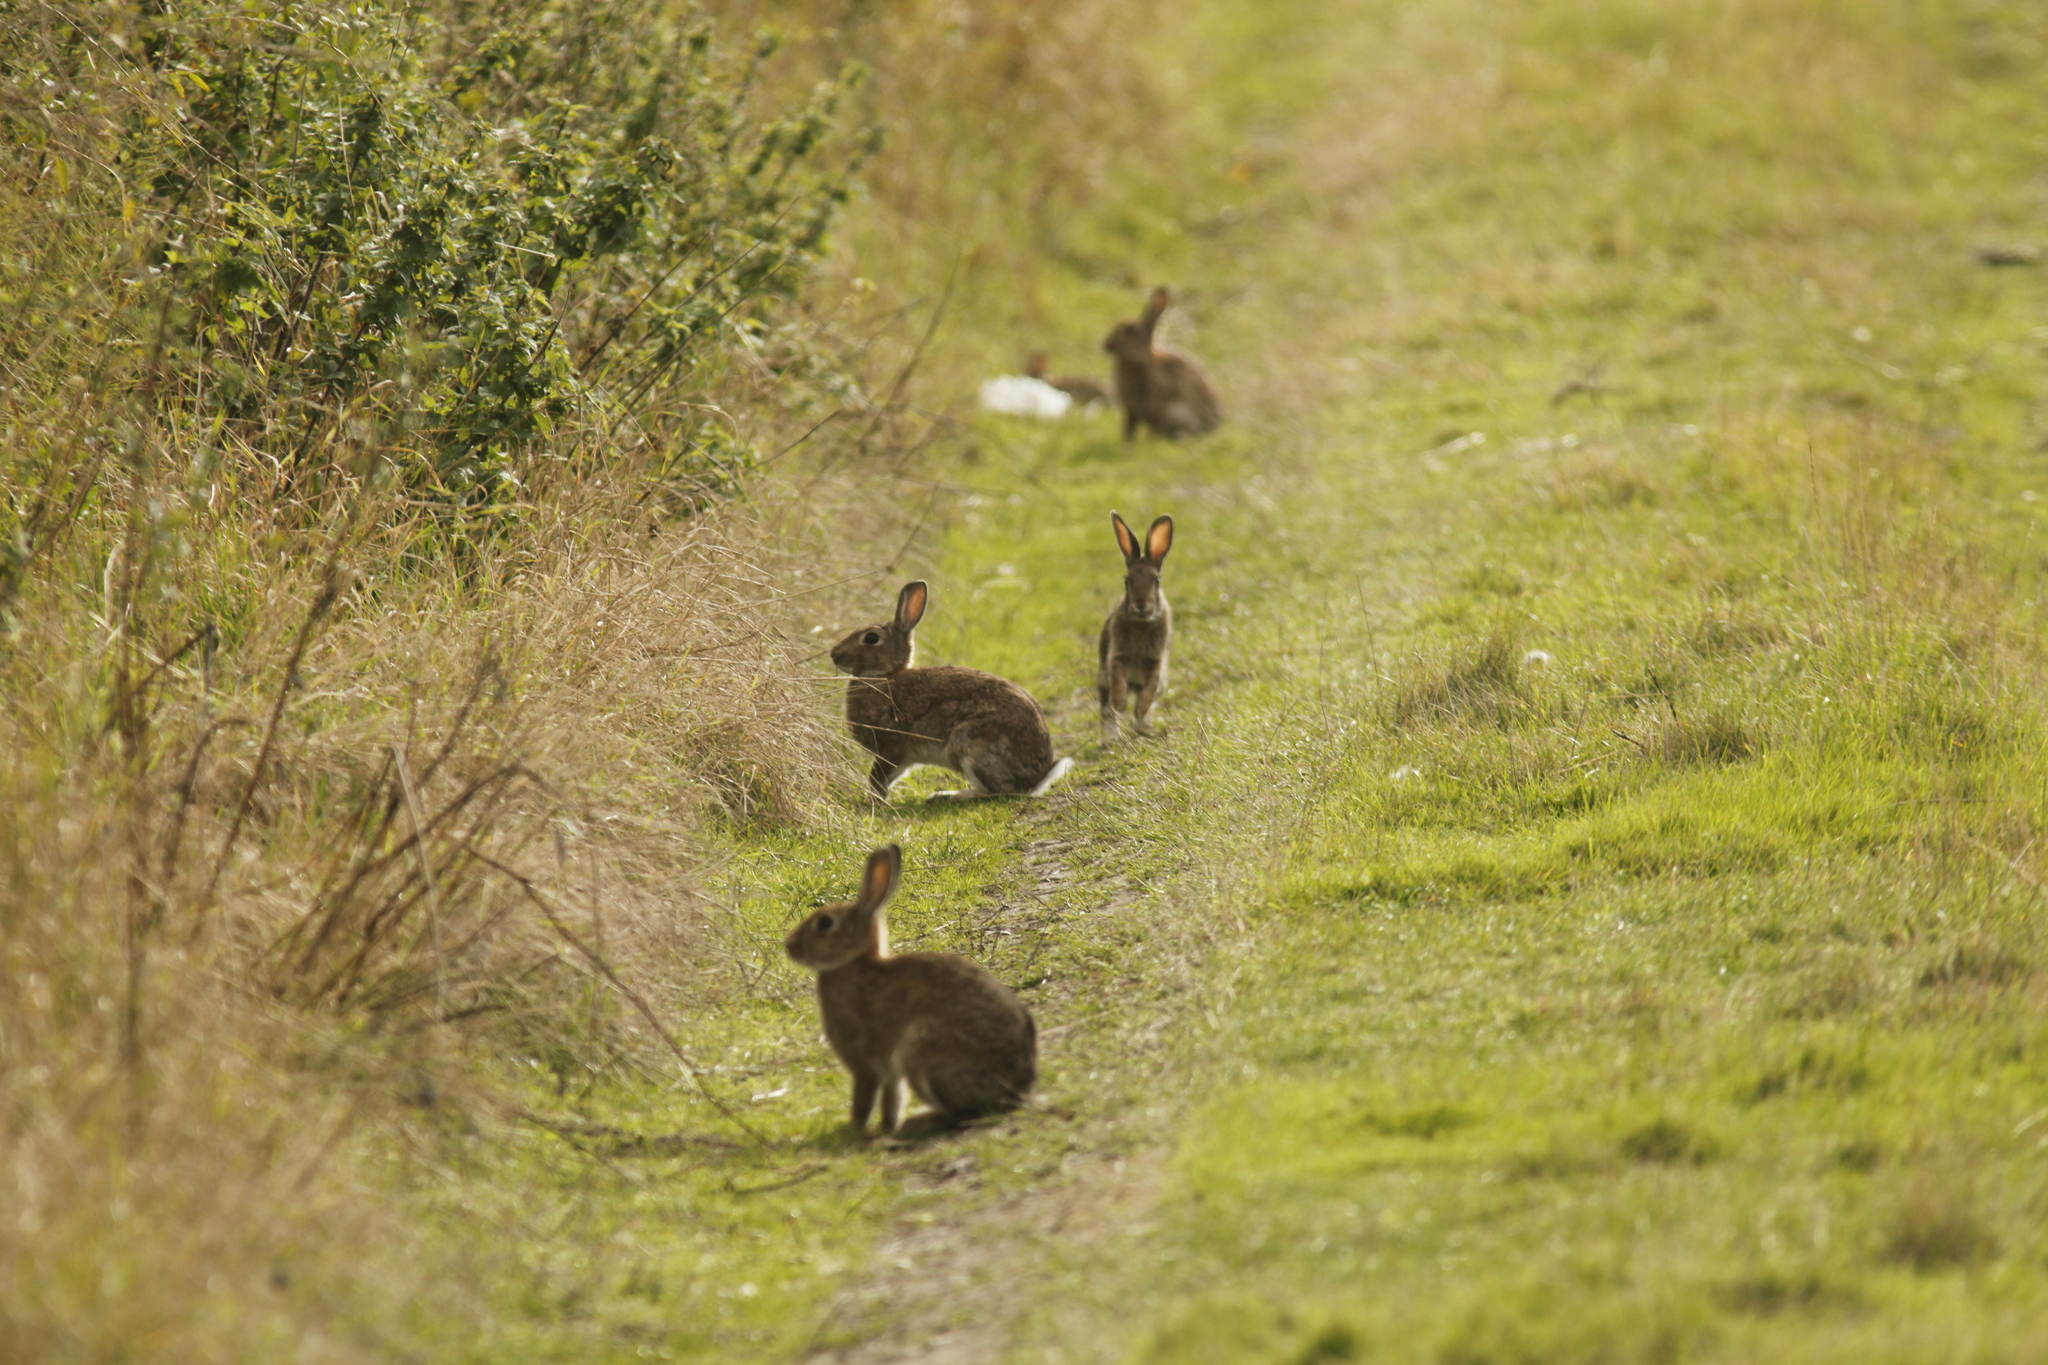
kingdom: Animalia
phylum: Chordata
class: Mammalia
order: Lagomorpha
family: Leporidae
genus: Oryctolagus
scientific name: Oryctolagus cuniculus
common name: European rabbit
